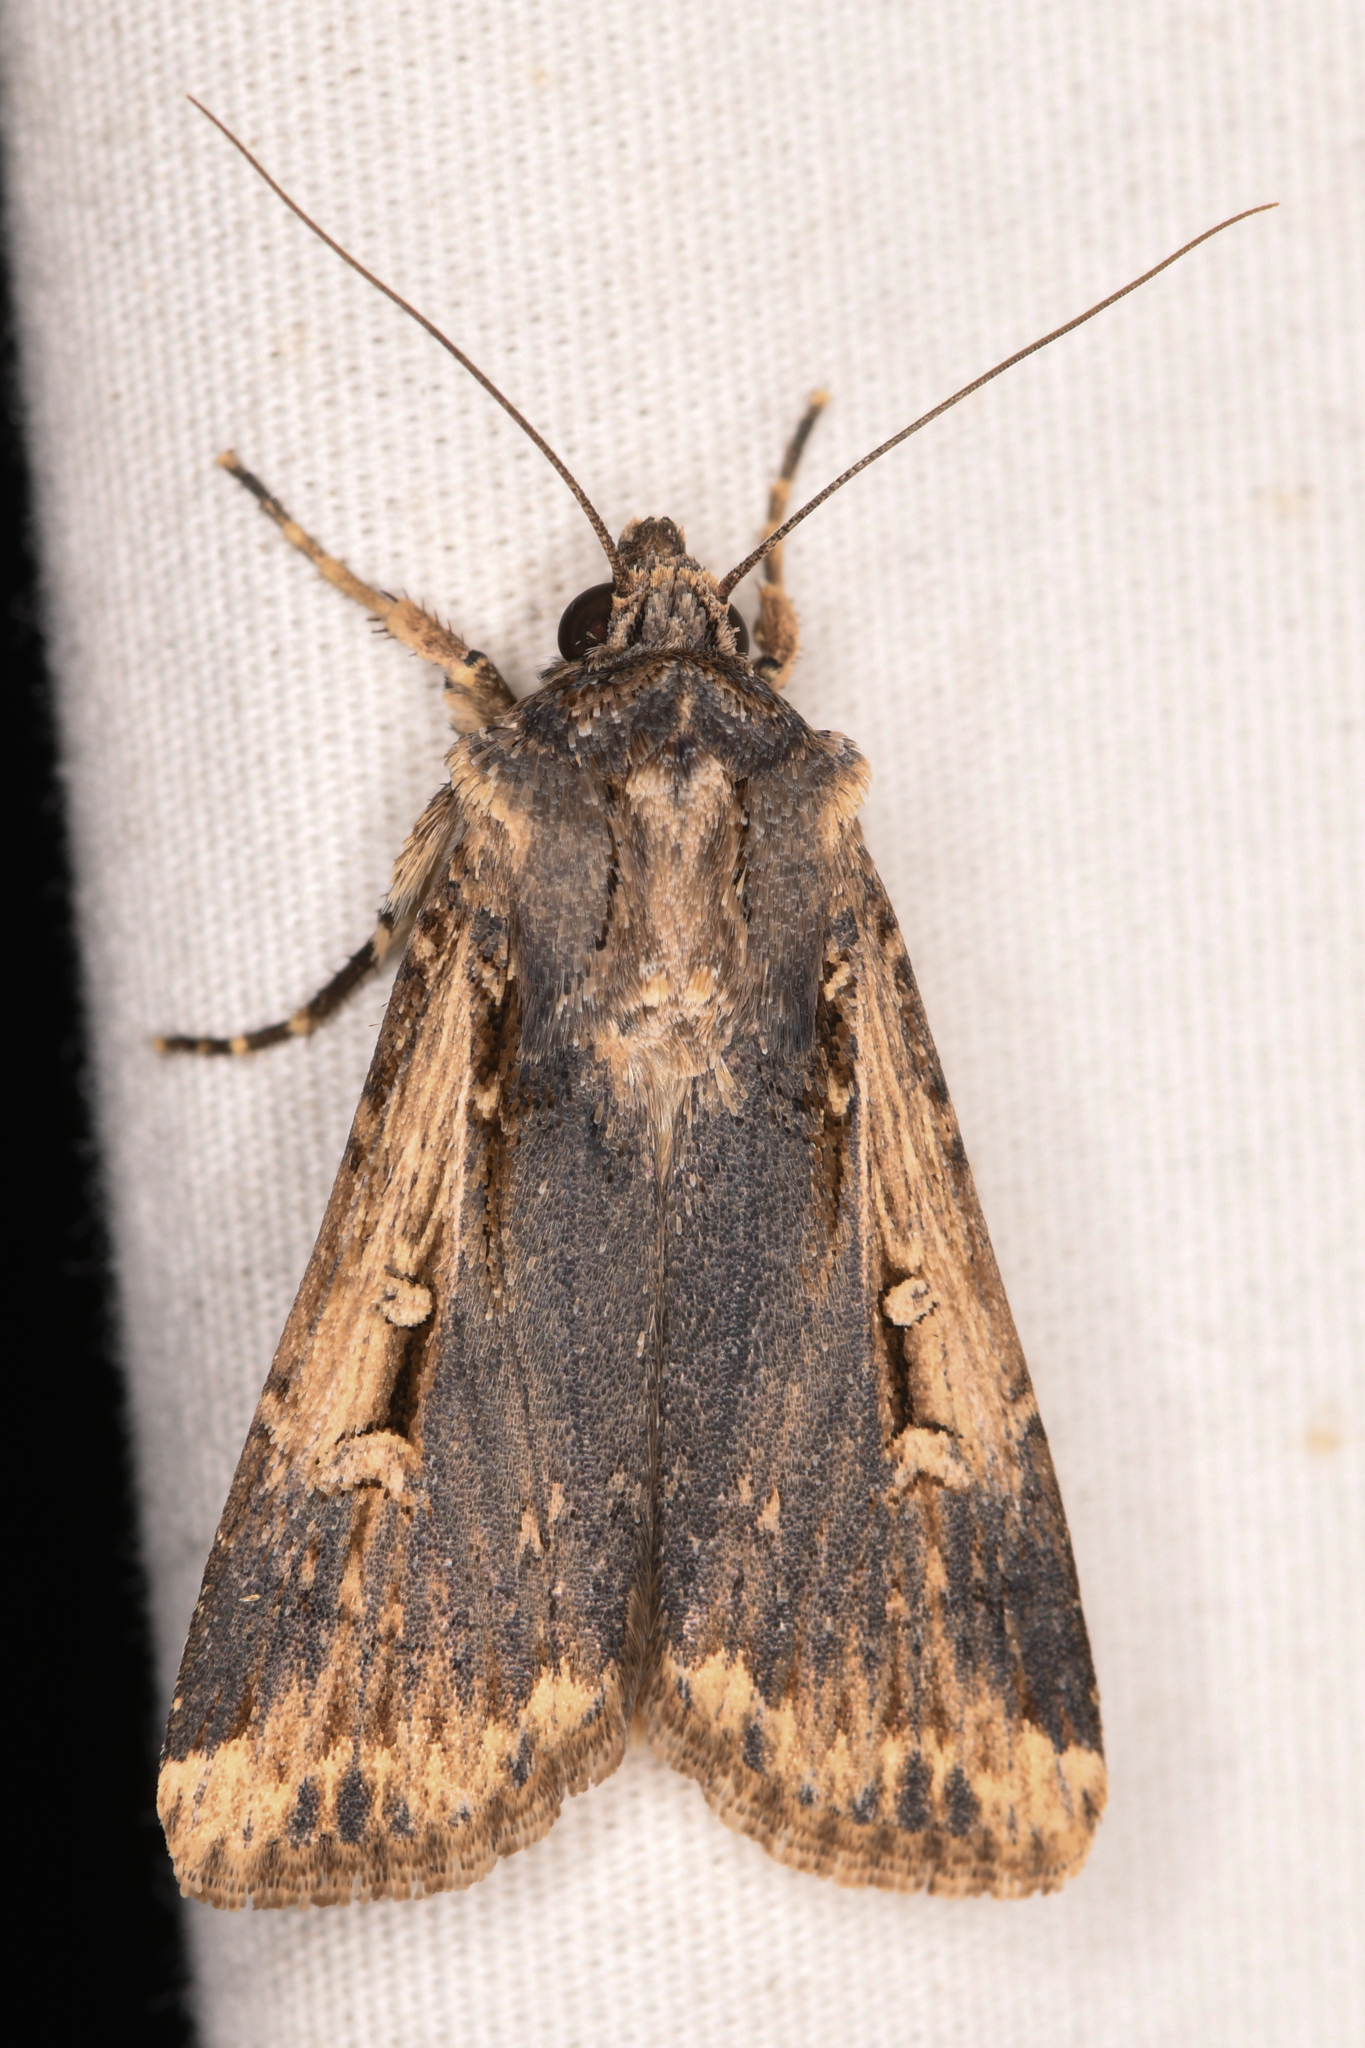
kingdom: Animalia
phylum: Arthropoda
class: Insecta
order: Lepidoptera
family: Noctuidae
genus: Feltia
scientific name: Feltia subterranea
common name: Granulate cutworm
